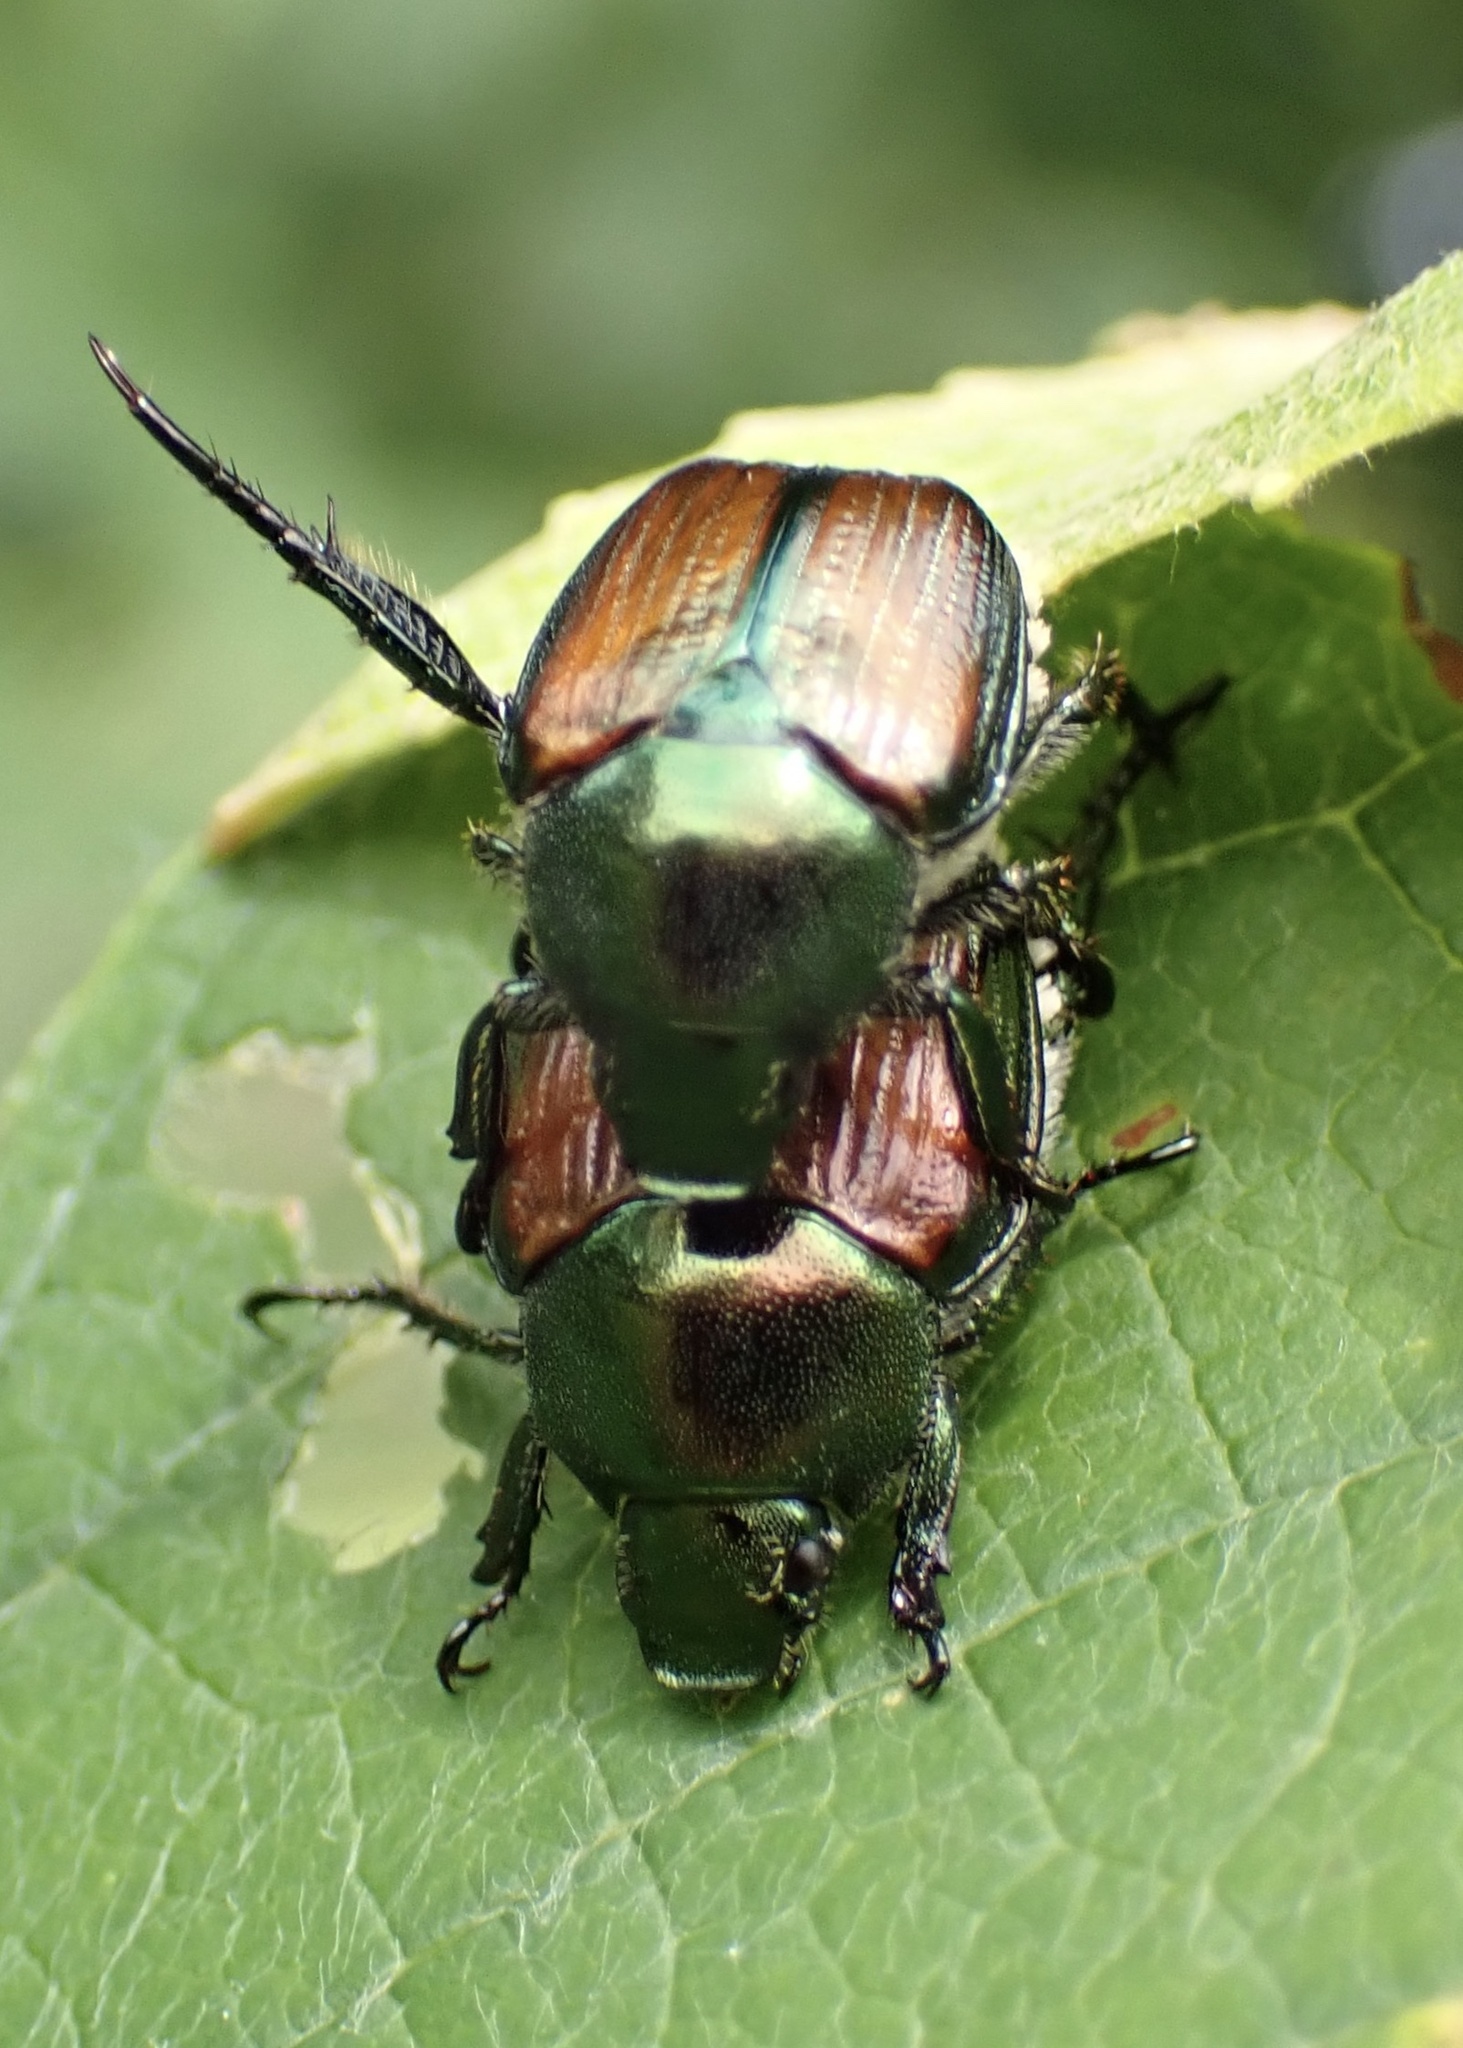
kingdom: Animalia
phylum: Arthropoda
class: Insecta
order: Coleoptera
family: Scarabaeidae
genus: Popillia
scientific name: Popillia japonica
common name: Japanese beetle
